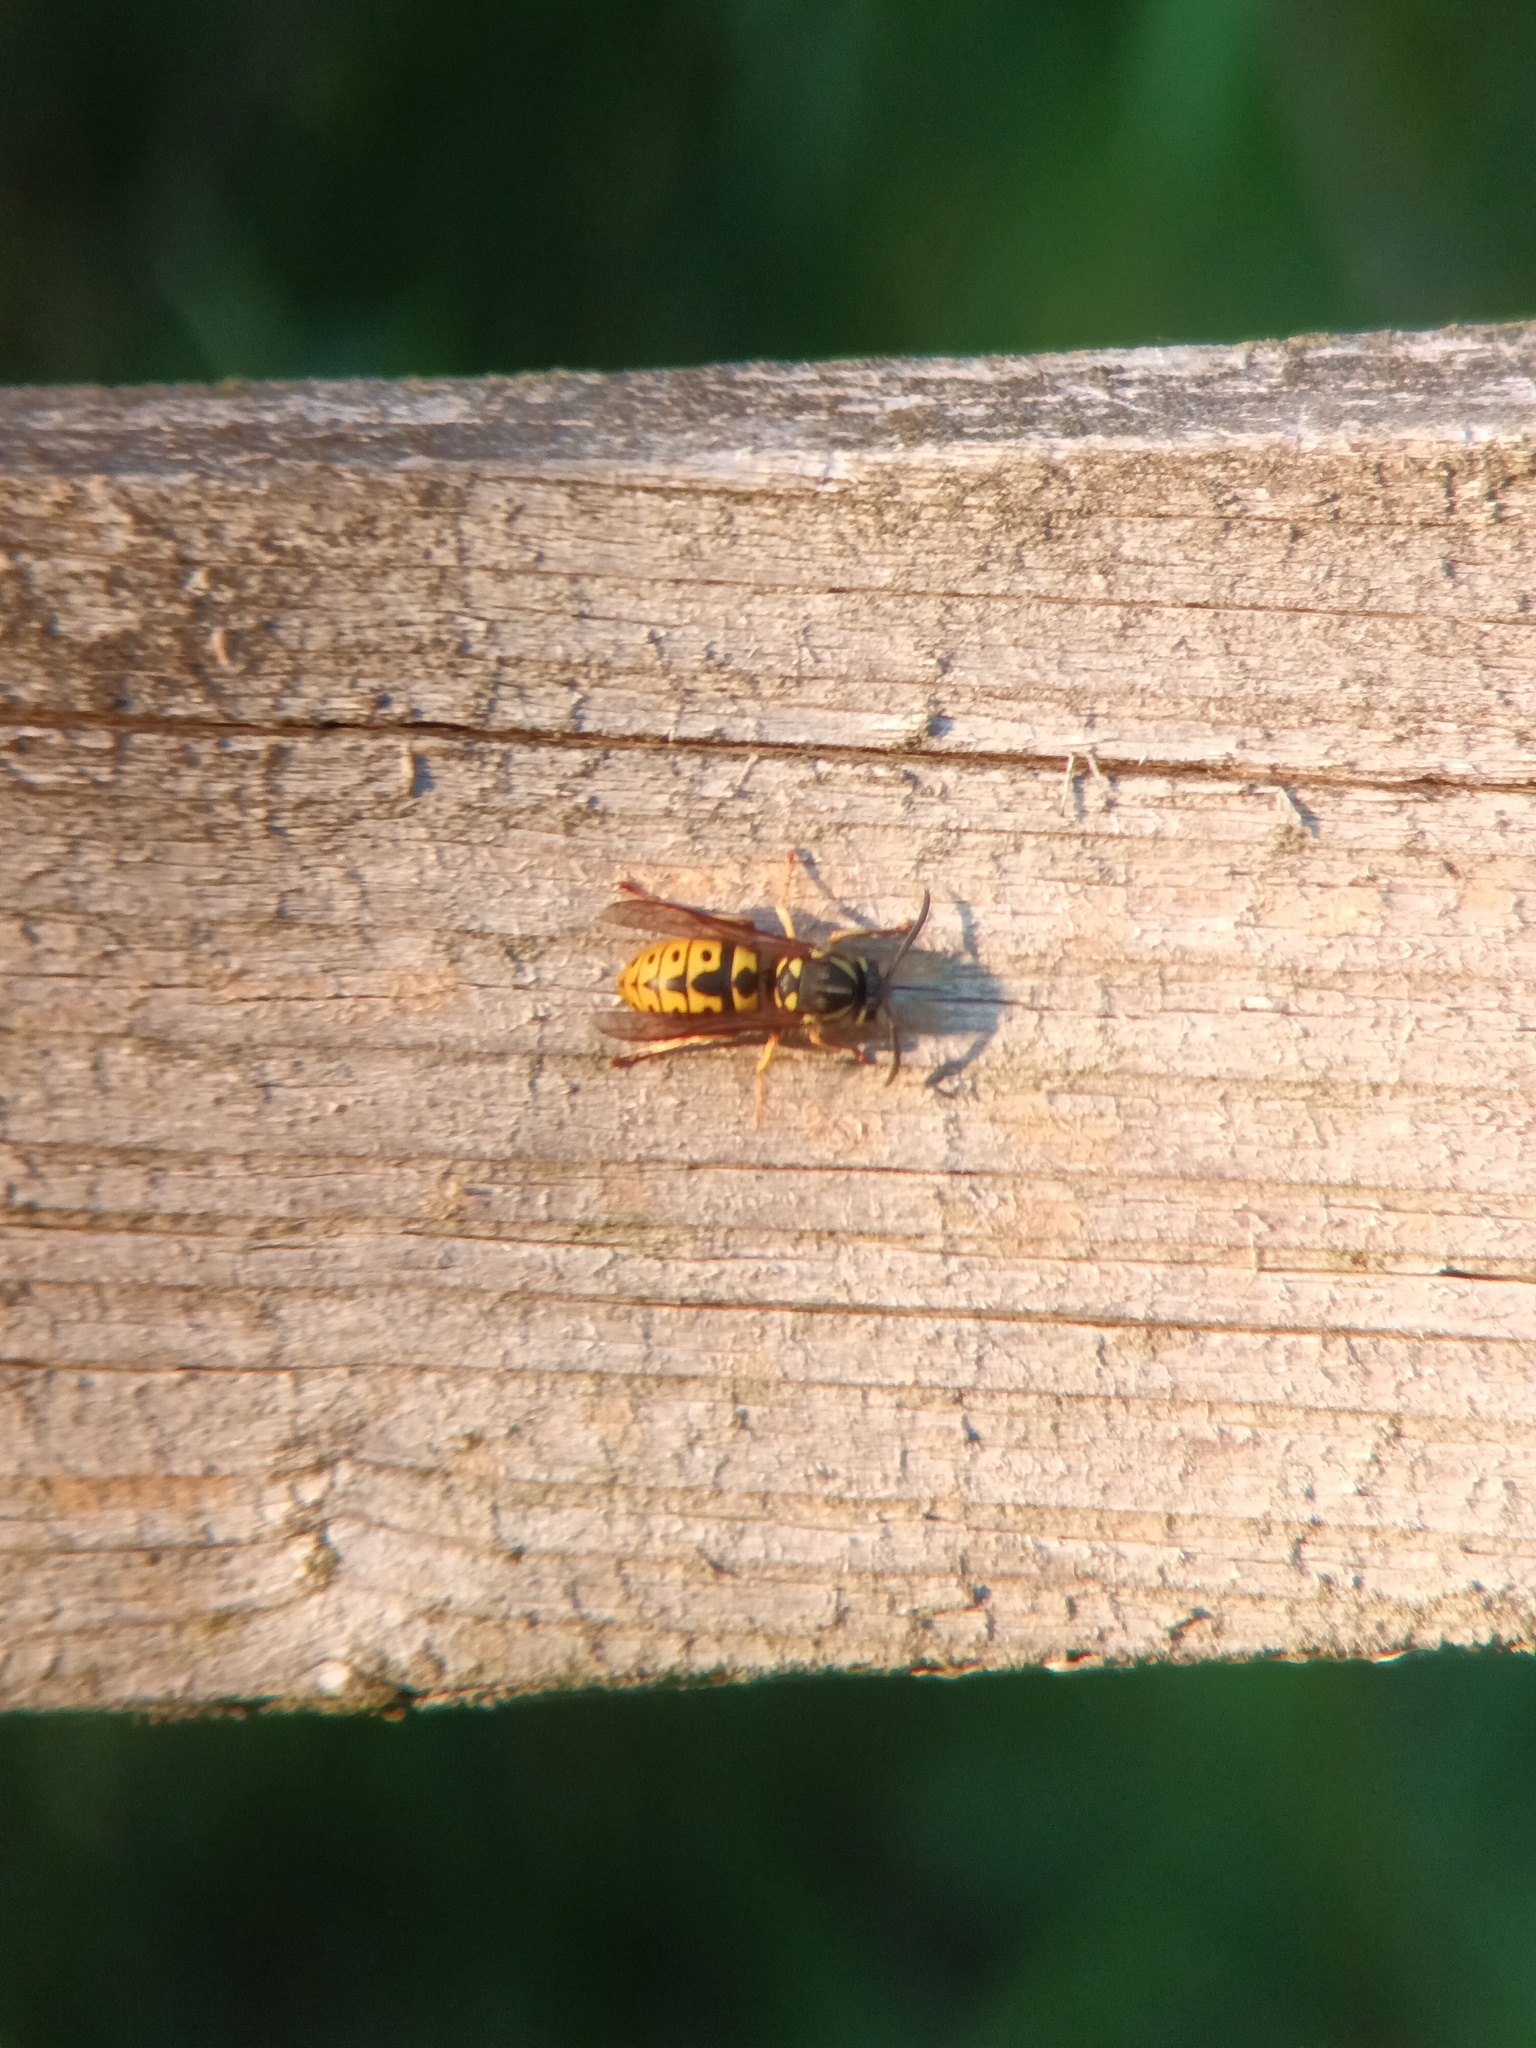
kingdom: Animalia
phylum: Arthropoda
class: Insecta
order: Hymenoptera
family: Vespidae
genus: Vespula
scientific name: Vespula germanica
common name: German wasp
